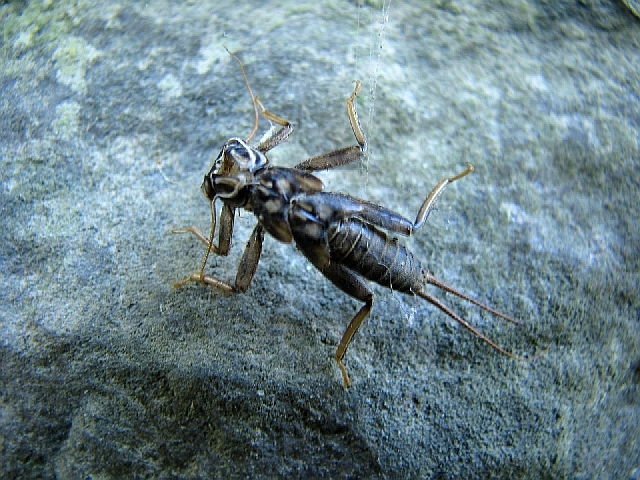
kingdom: Animalia
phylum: Arthropoda
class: Insecta
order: Plecoptera
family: Perlidae
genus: Perla
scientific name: Perla marginata
